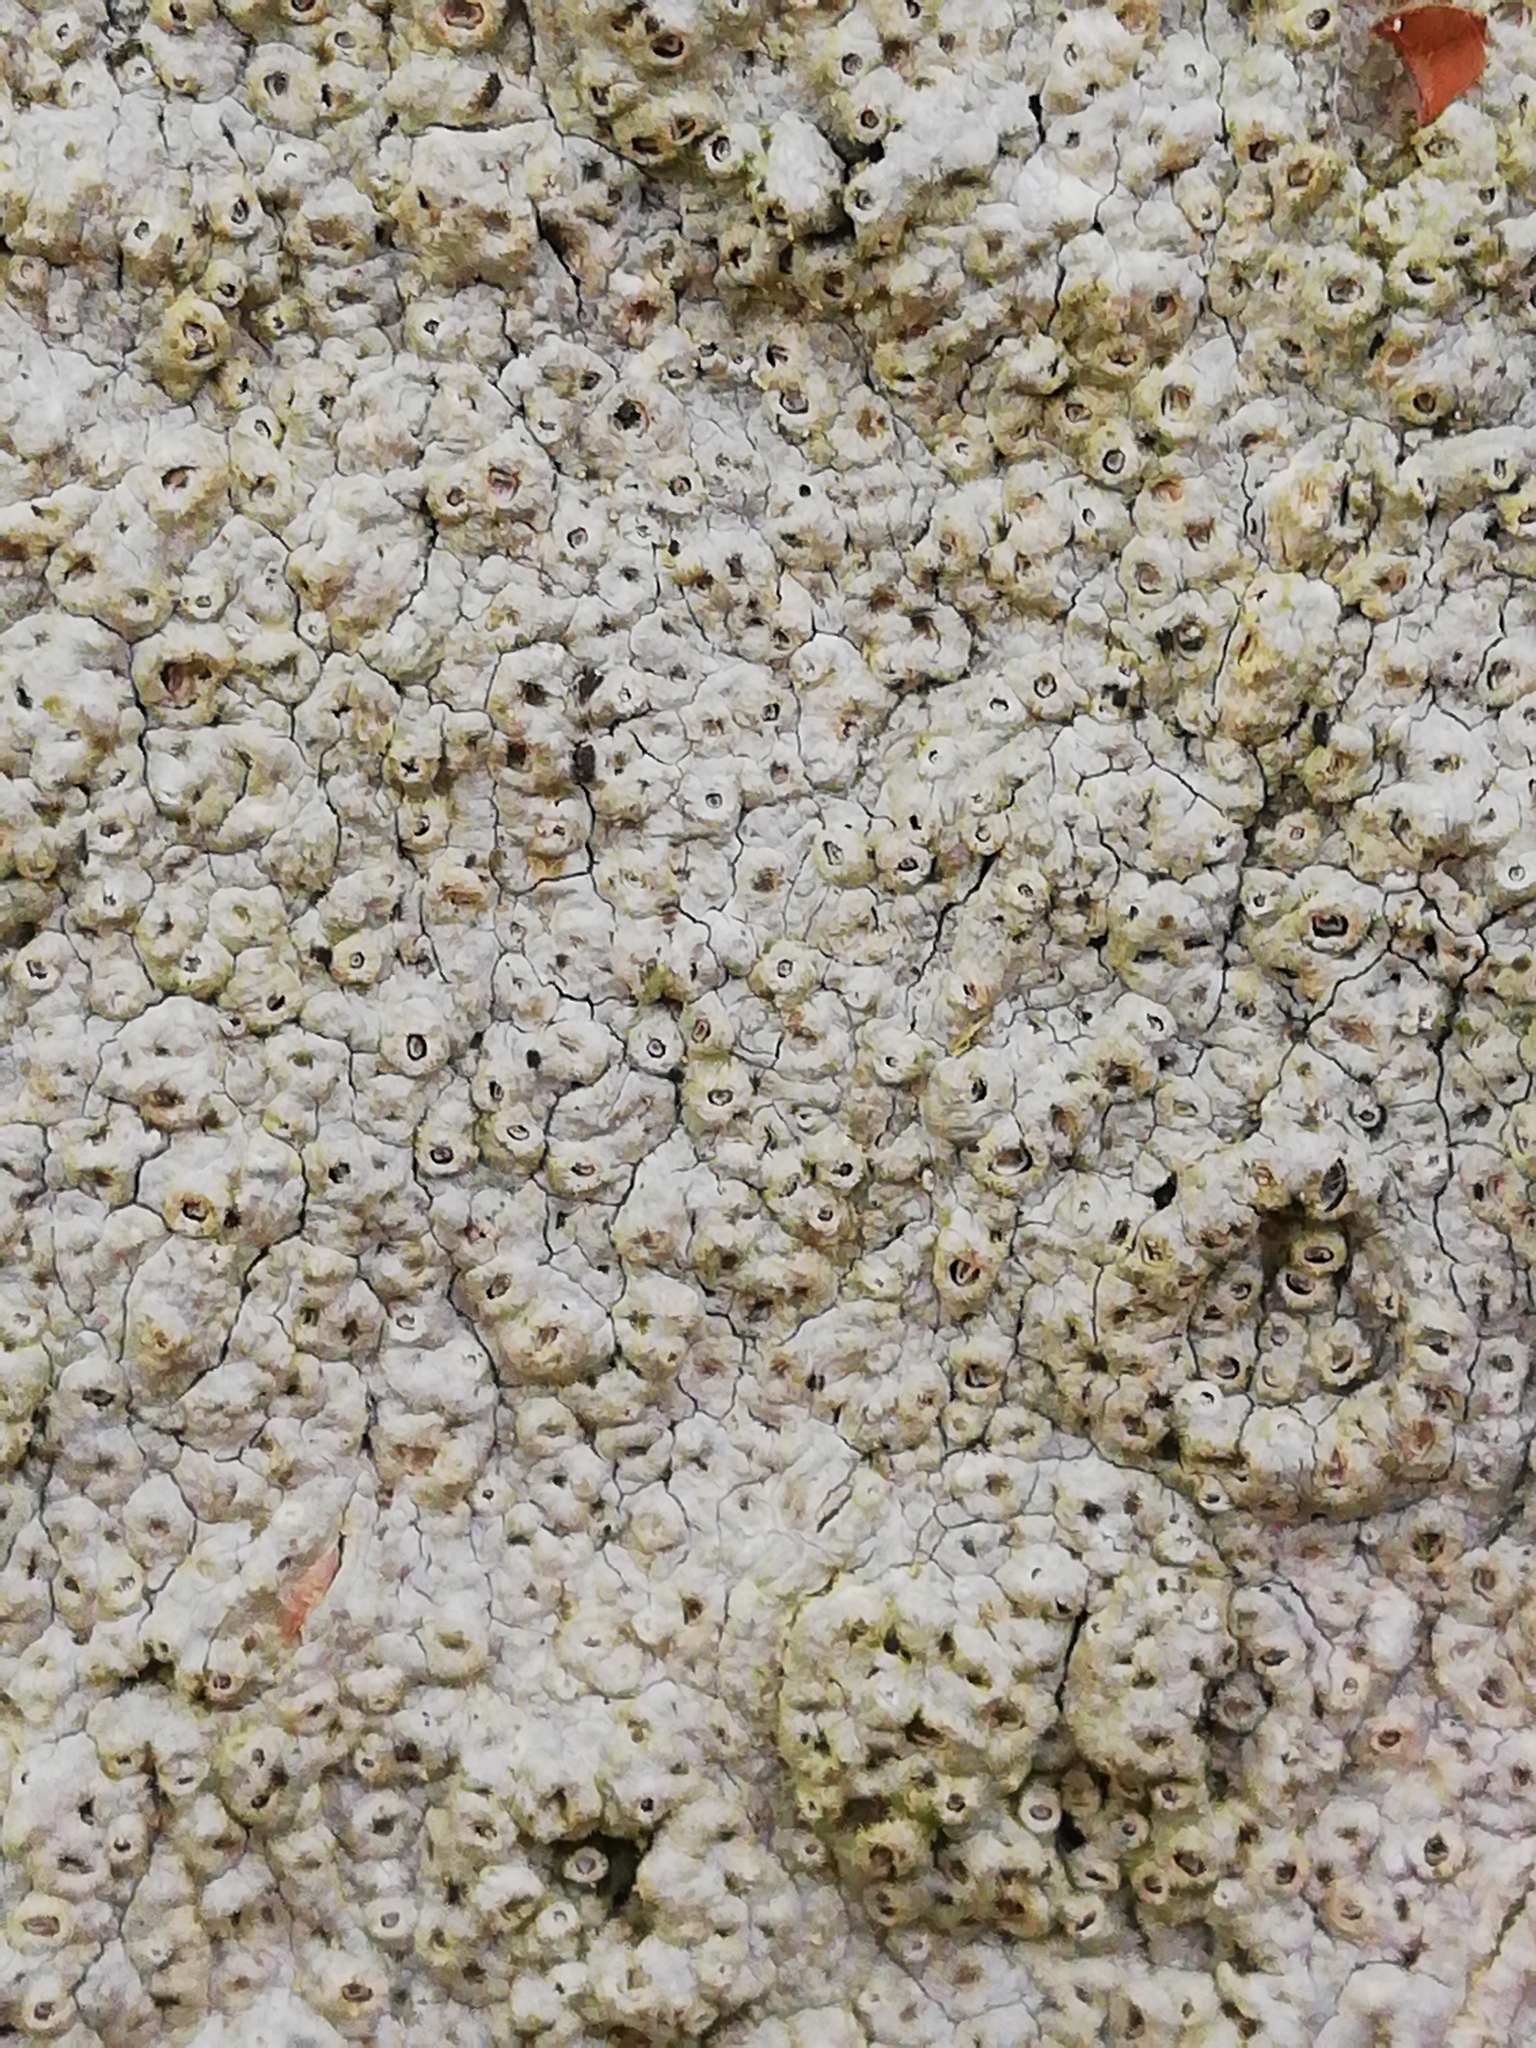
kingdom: Fungi
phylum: Ascomycota
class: Lecanoromycetes
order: Ostropales
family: Graphidaceae
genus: Thelotrema
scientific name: Thelotrema lepadinum
